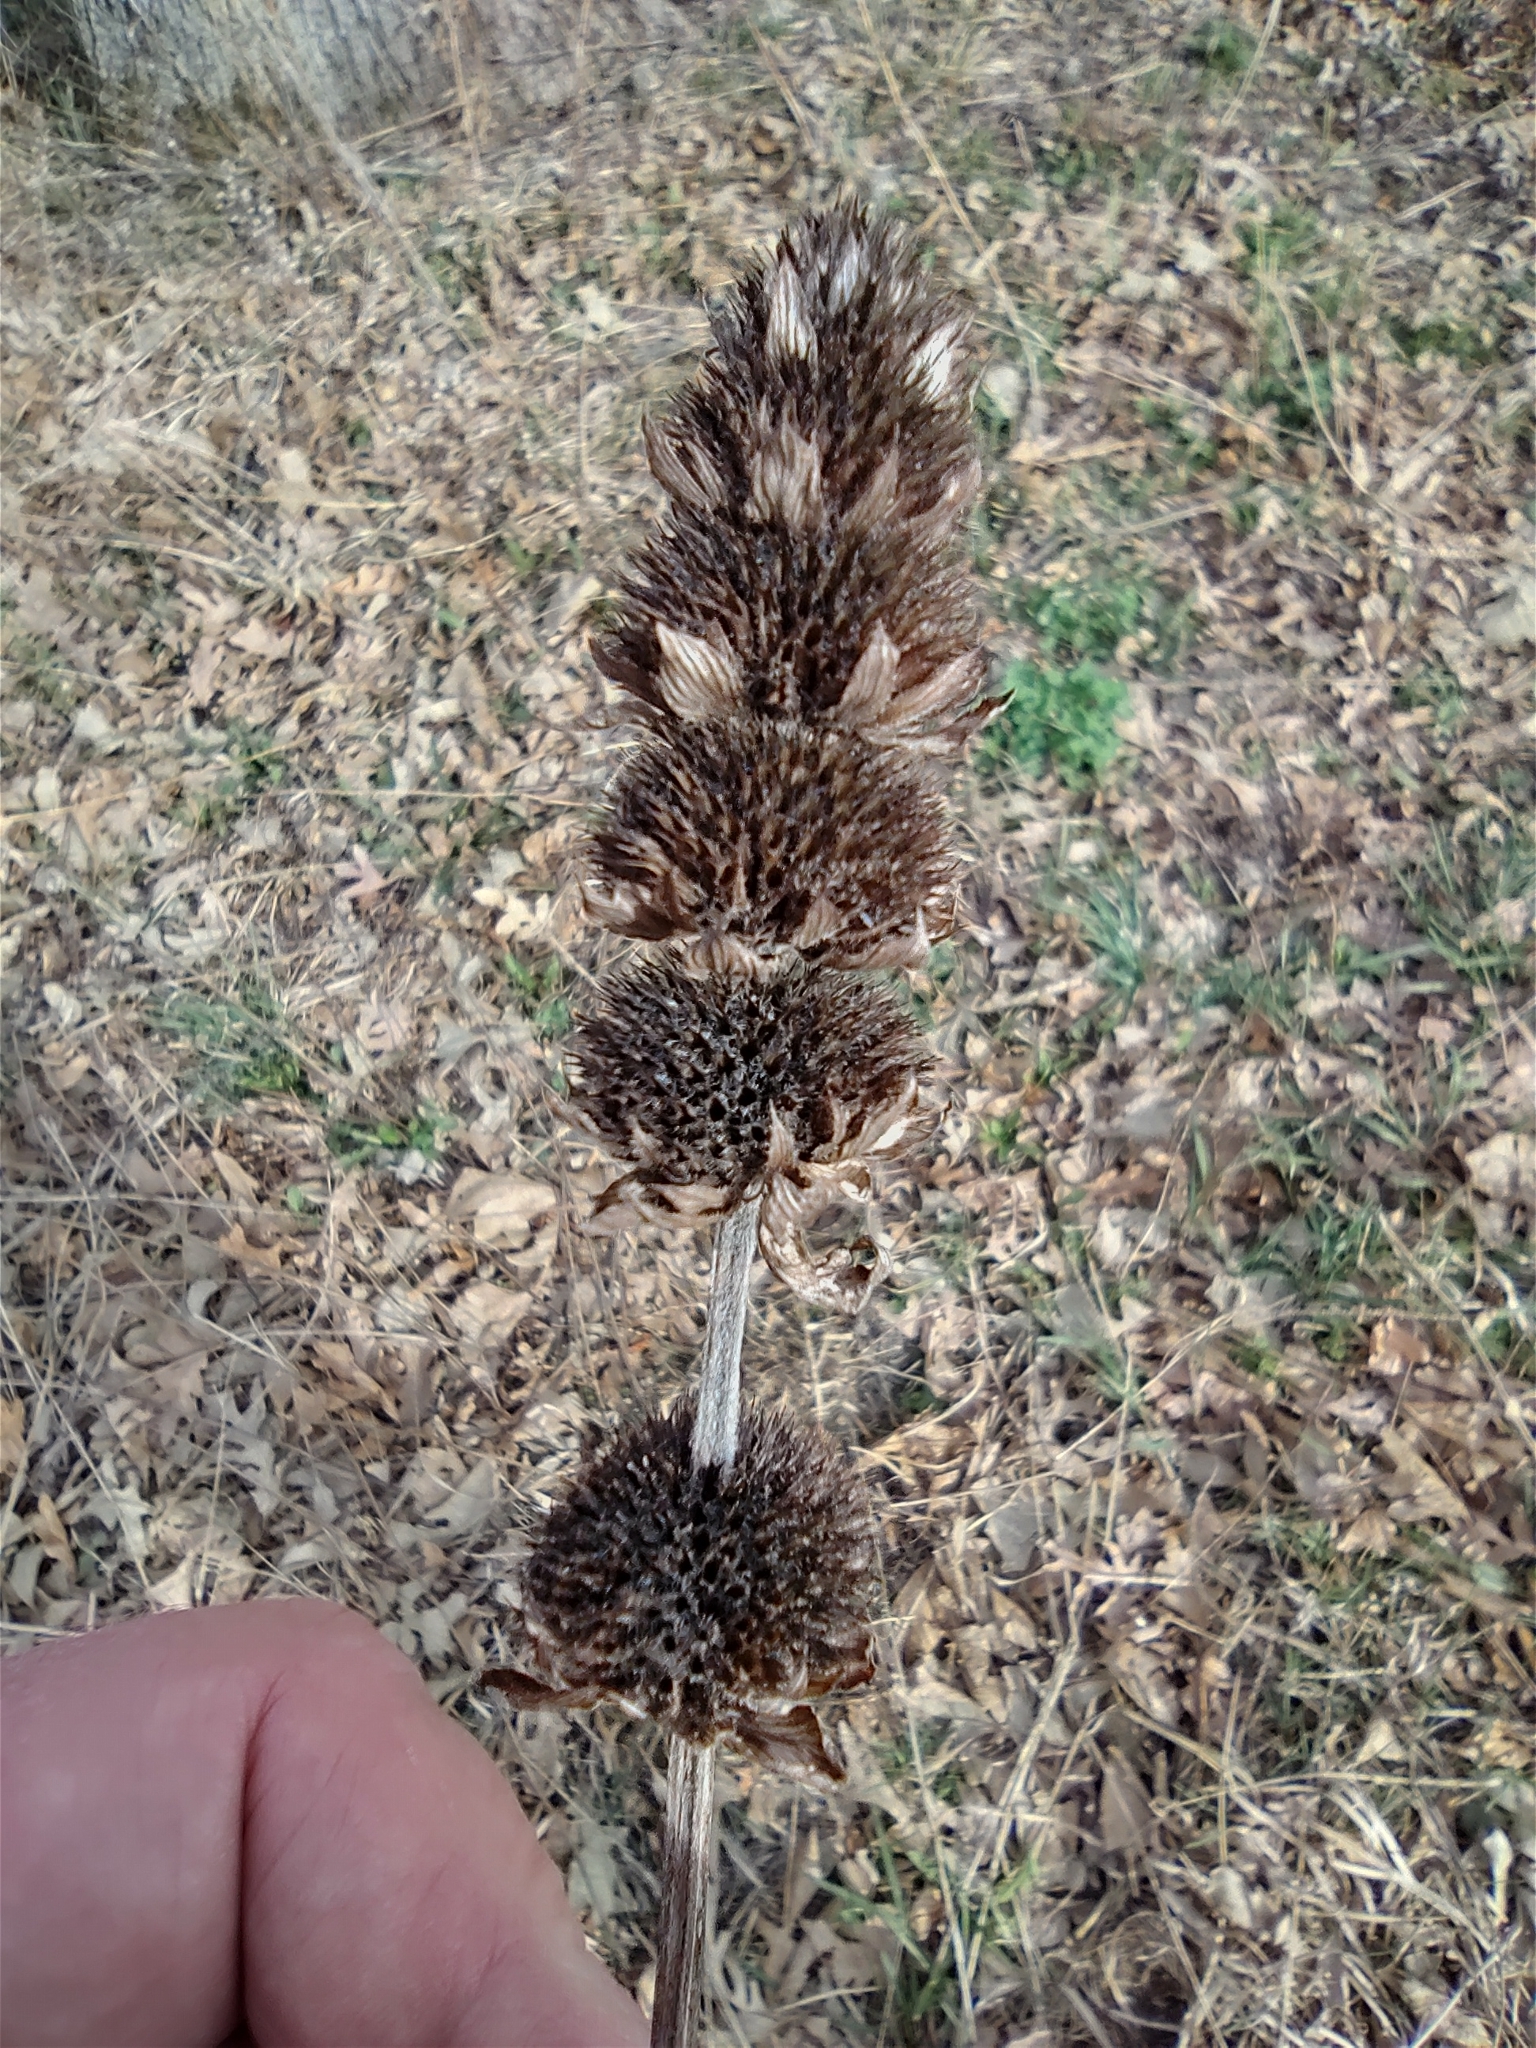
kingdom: Plantae
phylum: Tracheophyta
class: Magnoliopsida
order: Lamiales
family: Lamiaceae
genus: Blephilia
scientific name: Blephilia hirsuta
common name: Hairy blephilia
